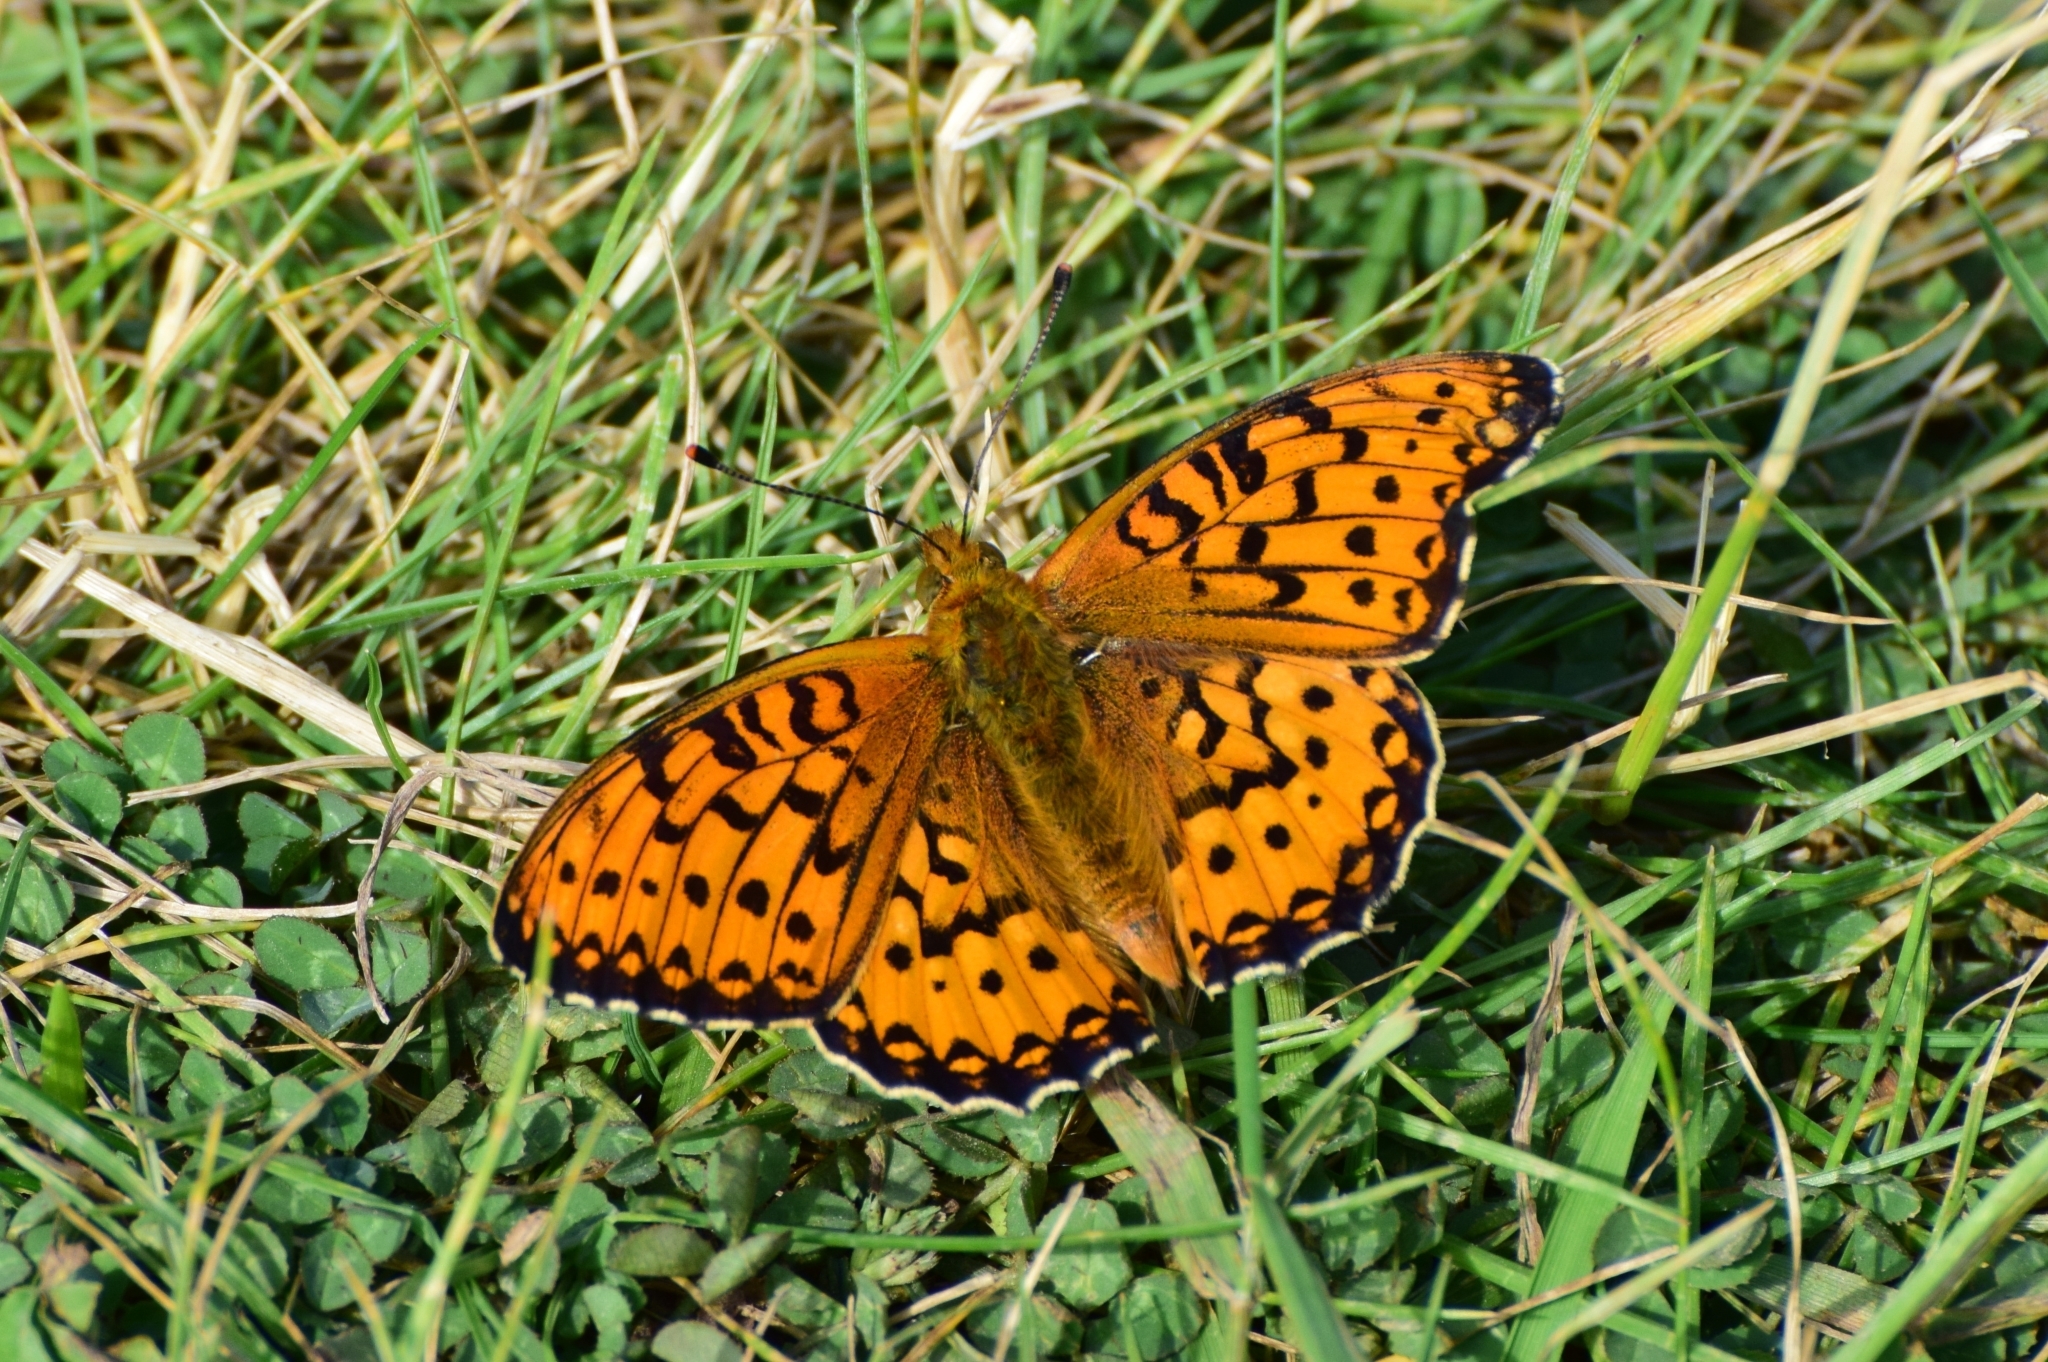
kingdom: Animalia
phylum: Arthropoda
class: Insecta
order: Lepidoptera
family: Nymphalidae
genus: Speyeria
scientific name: Speyeria aglaja
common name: Dark green fritillary
